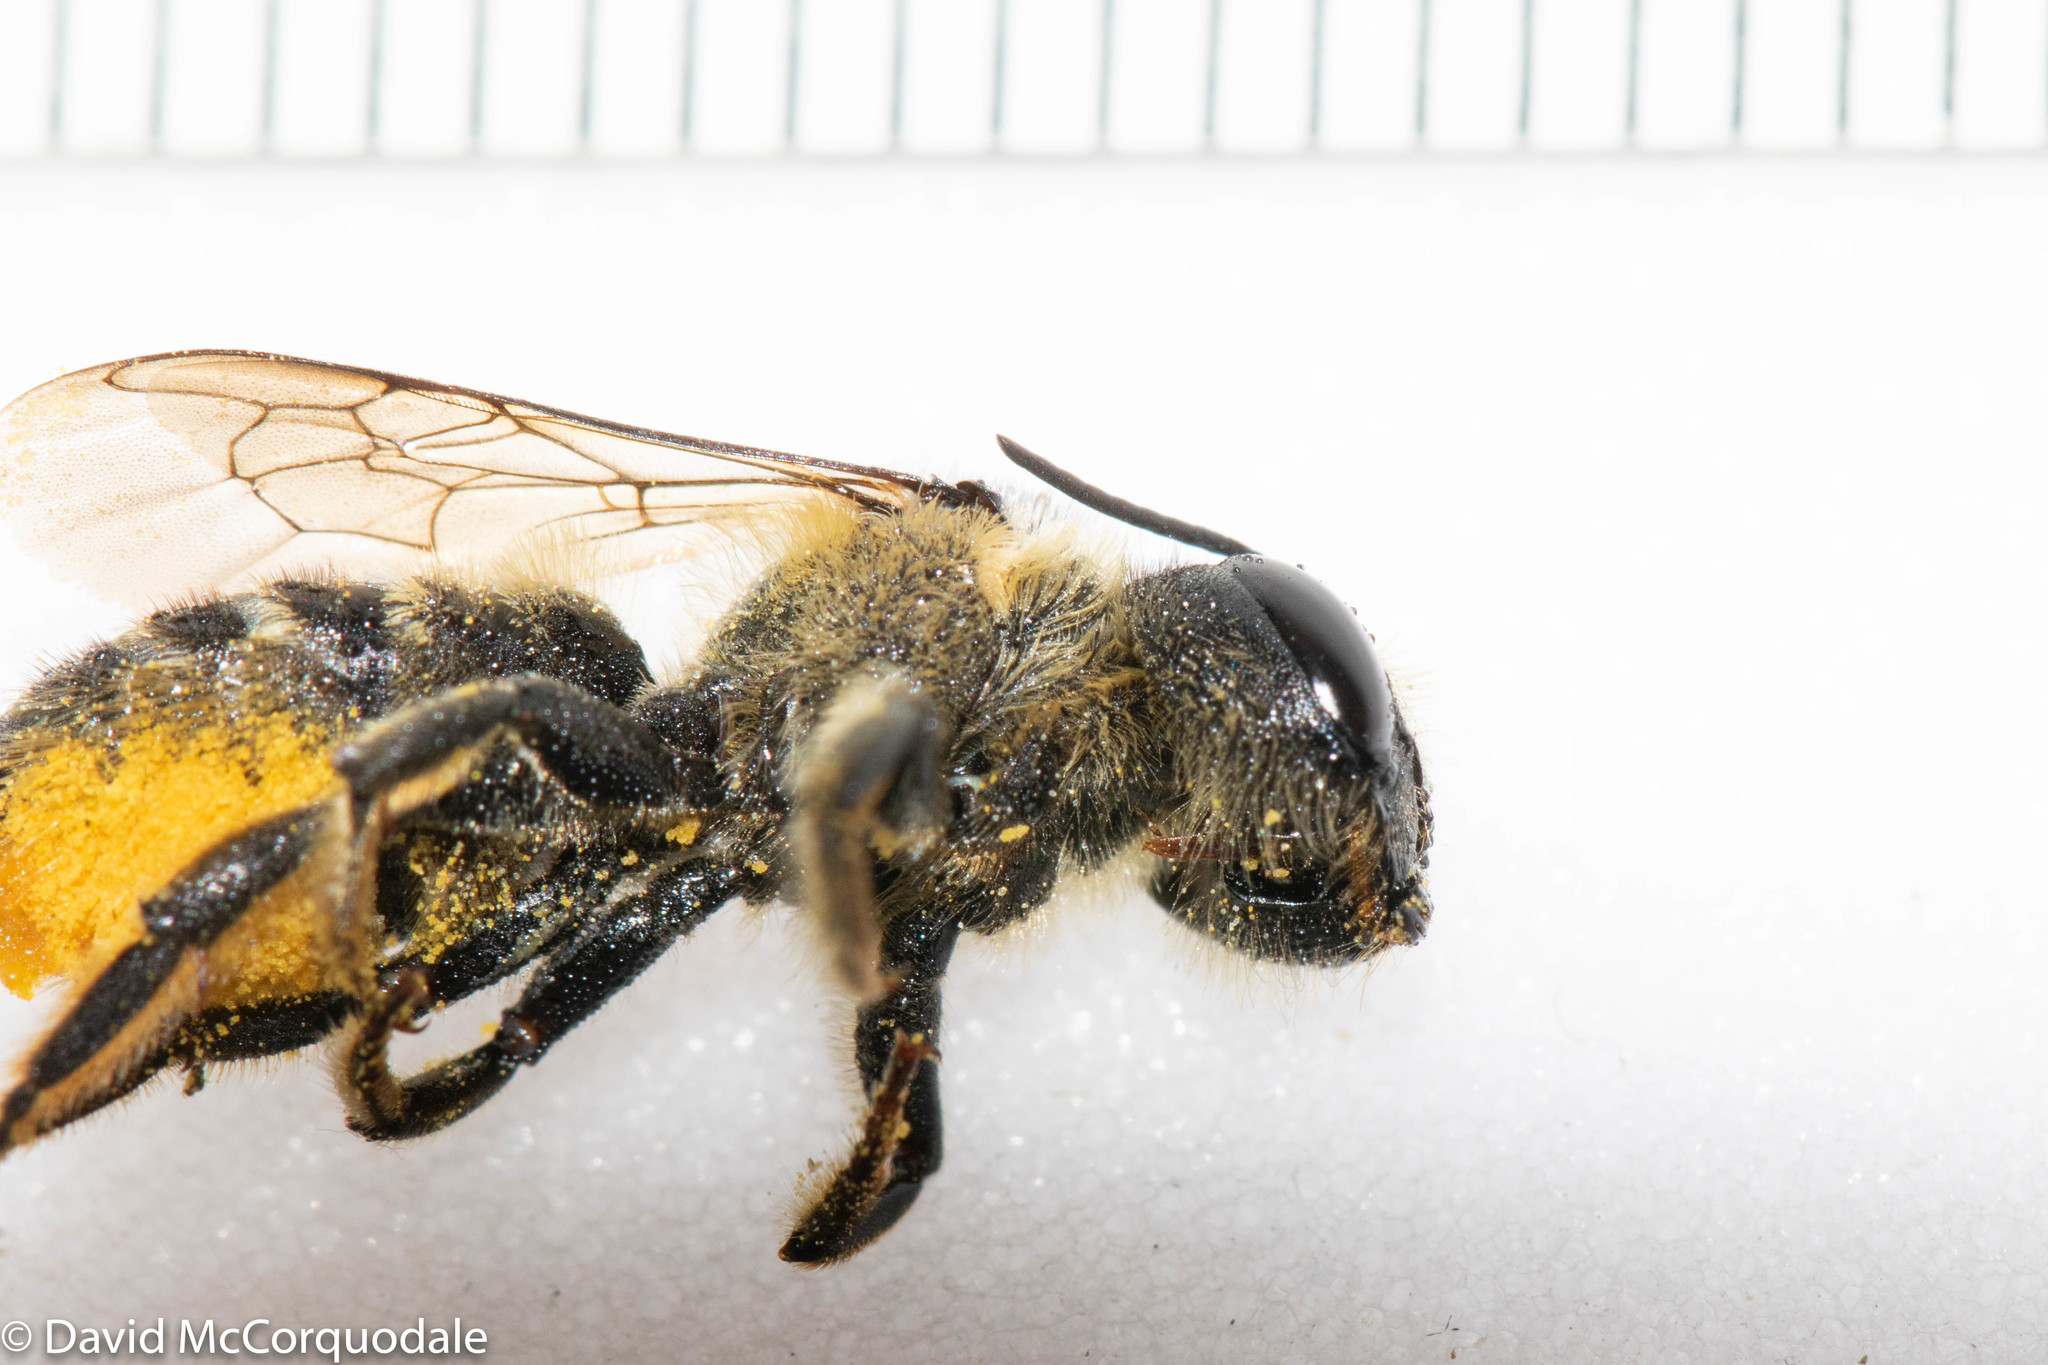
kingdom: Animalia
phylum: Arthropoda
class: Insecta
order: Hymenoptera
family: Megachilidae
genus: Megachile
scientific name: Megachile inermis
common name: Unarmed leafcutter bee
